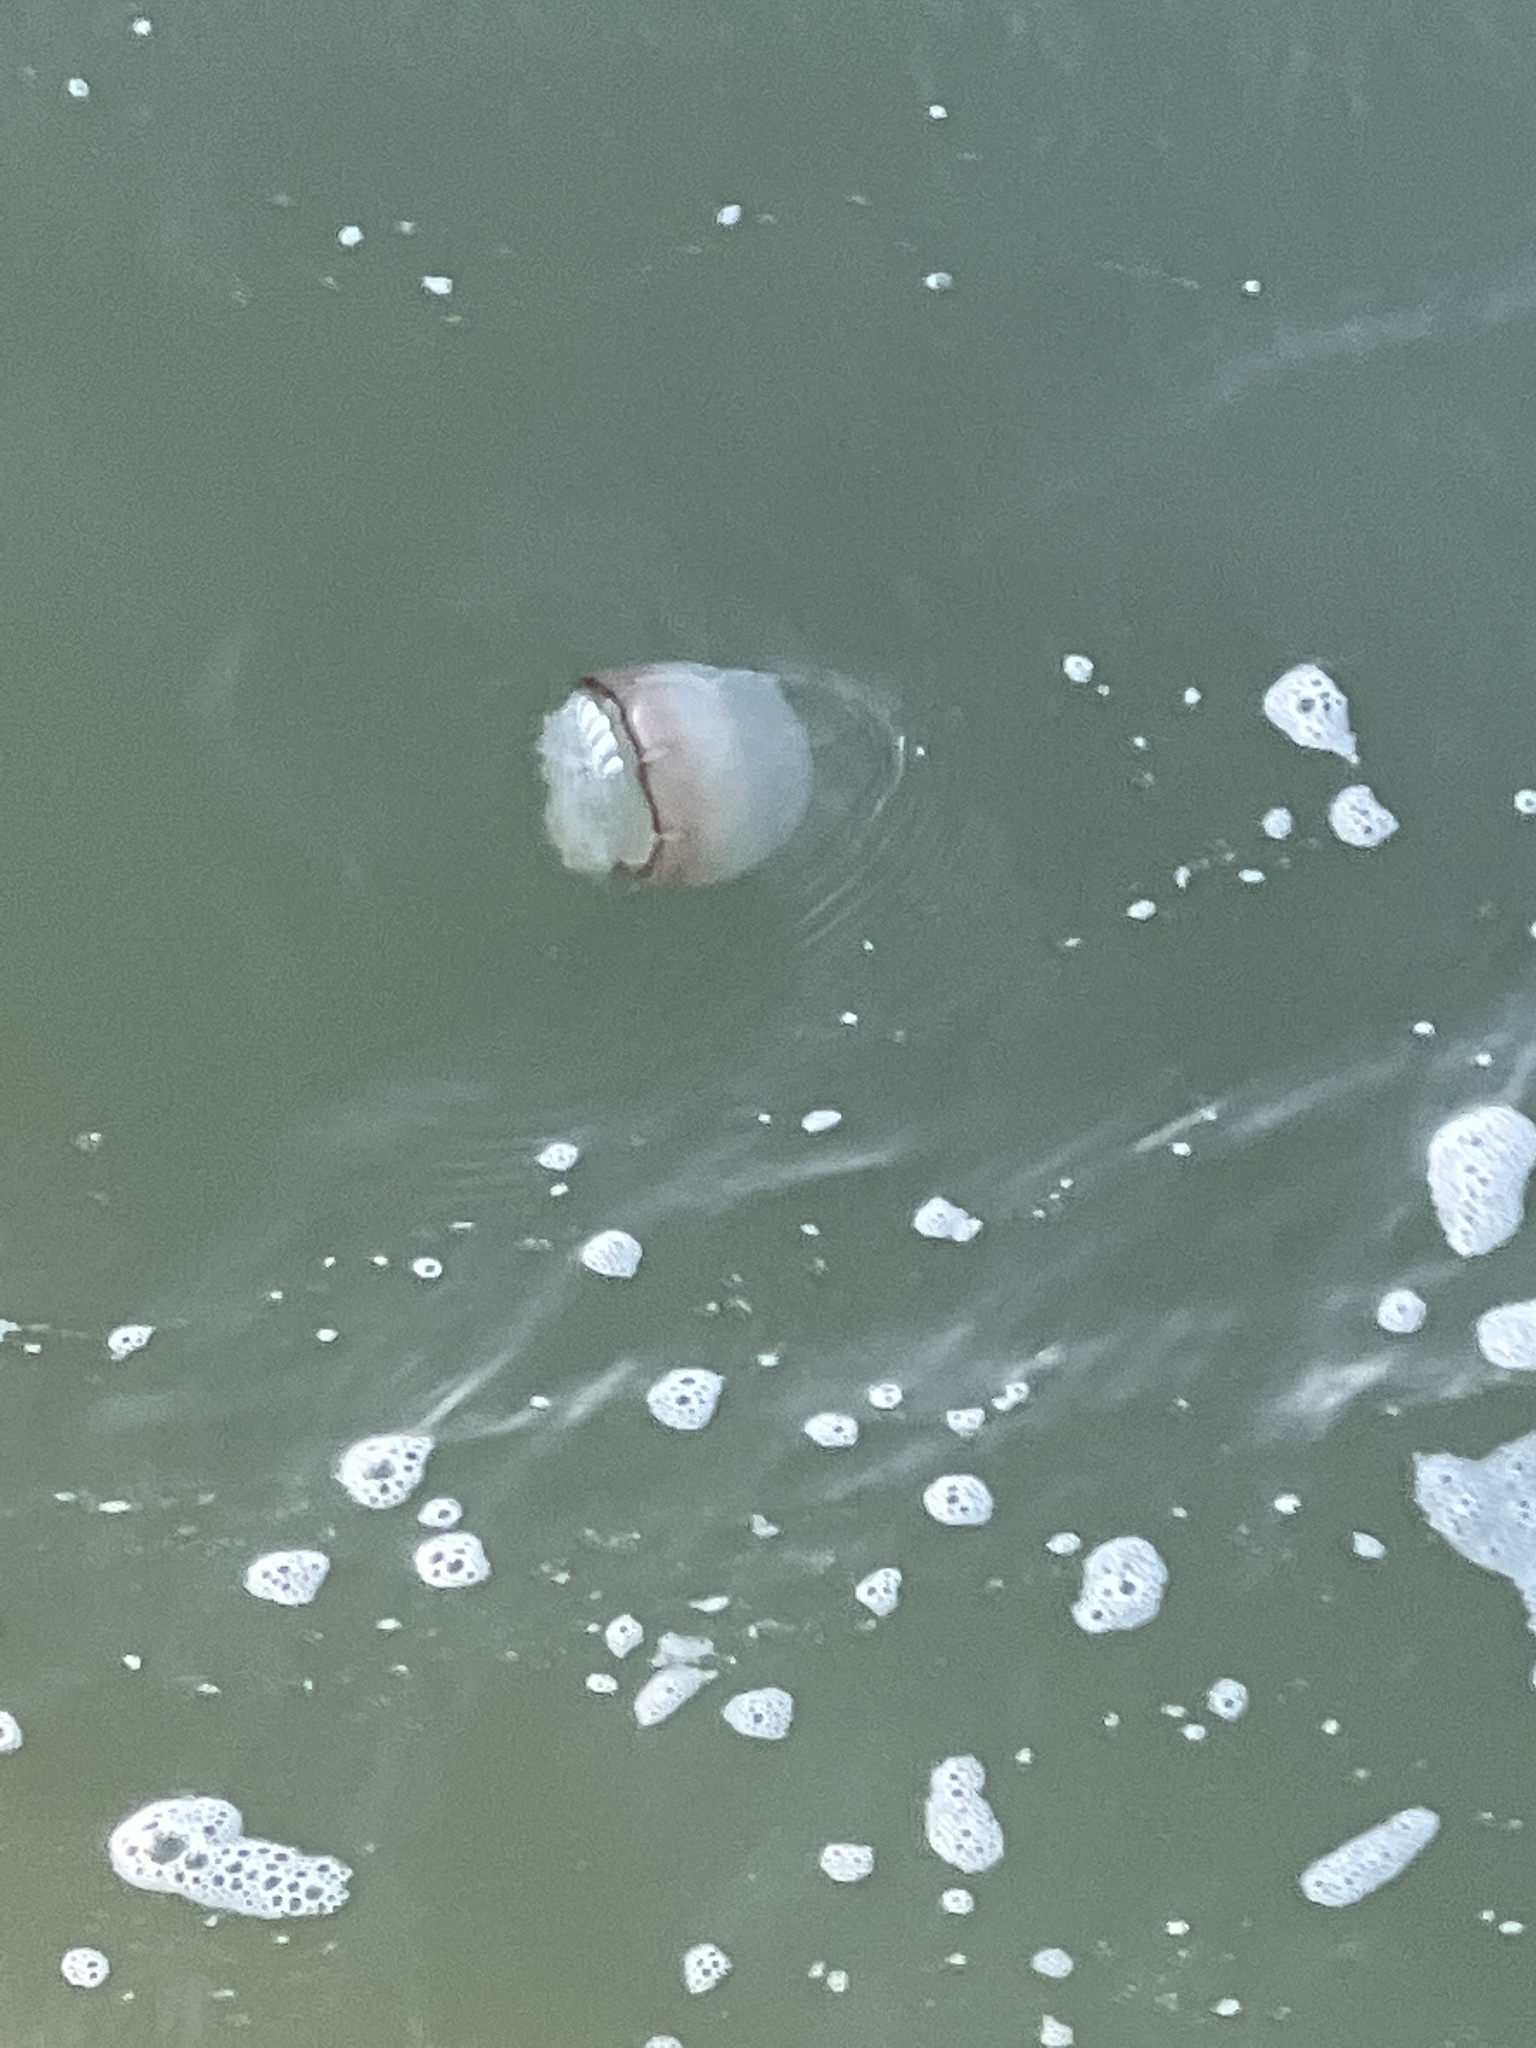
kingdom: Animalia
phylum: Cnidaria
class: Scyphozoa
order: Rhizostomeae
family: Stomolophidae
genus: Stomolophus
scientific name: Stomolophus meleagris
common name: Cabbagehead
